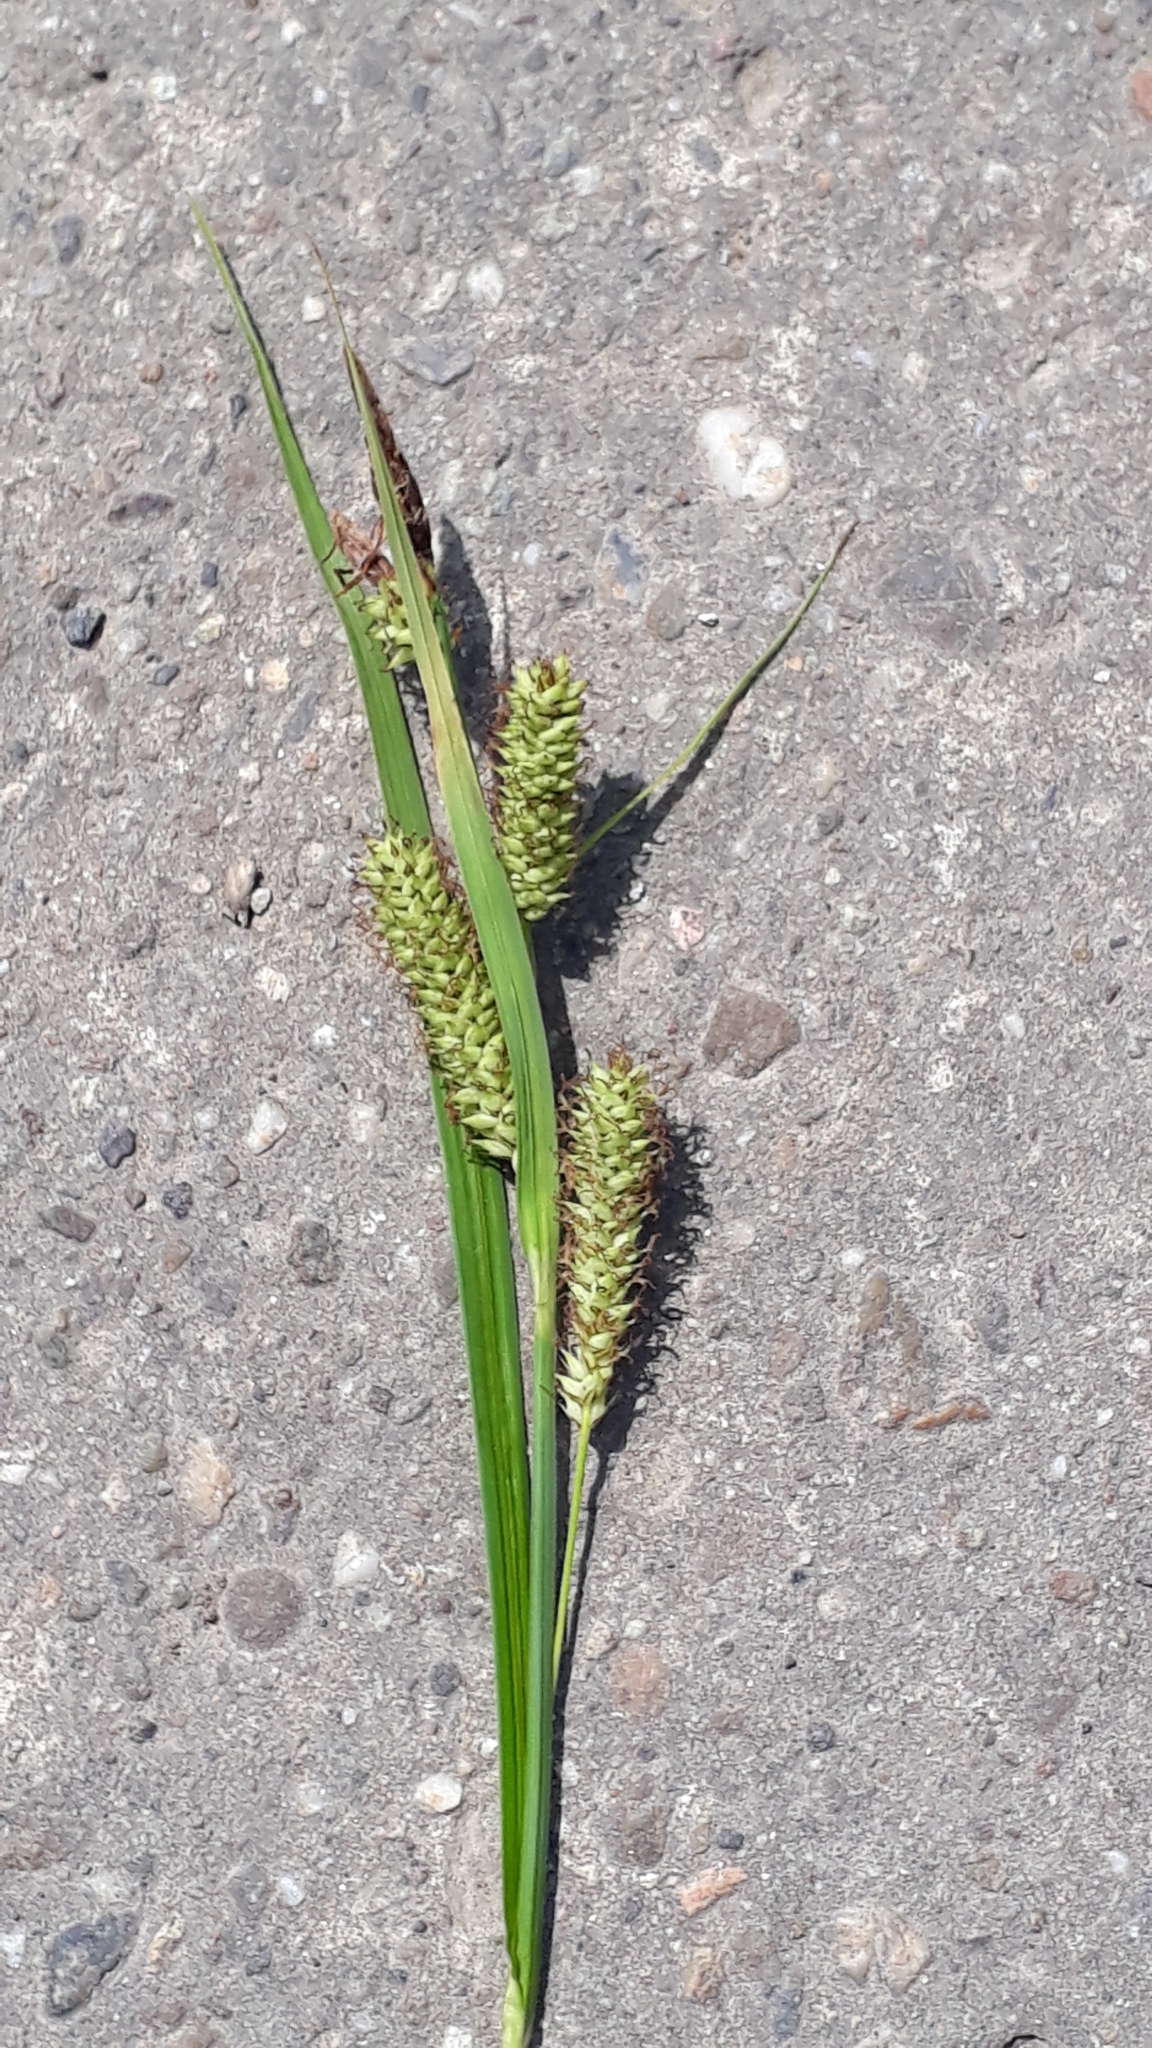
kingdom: Plantae
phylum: Tracheophyta
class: Liliopsida
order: Poales
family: Cyperaceae
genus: Carex
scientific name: Carex rostrata
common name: Bottle sedge
